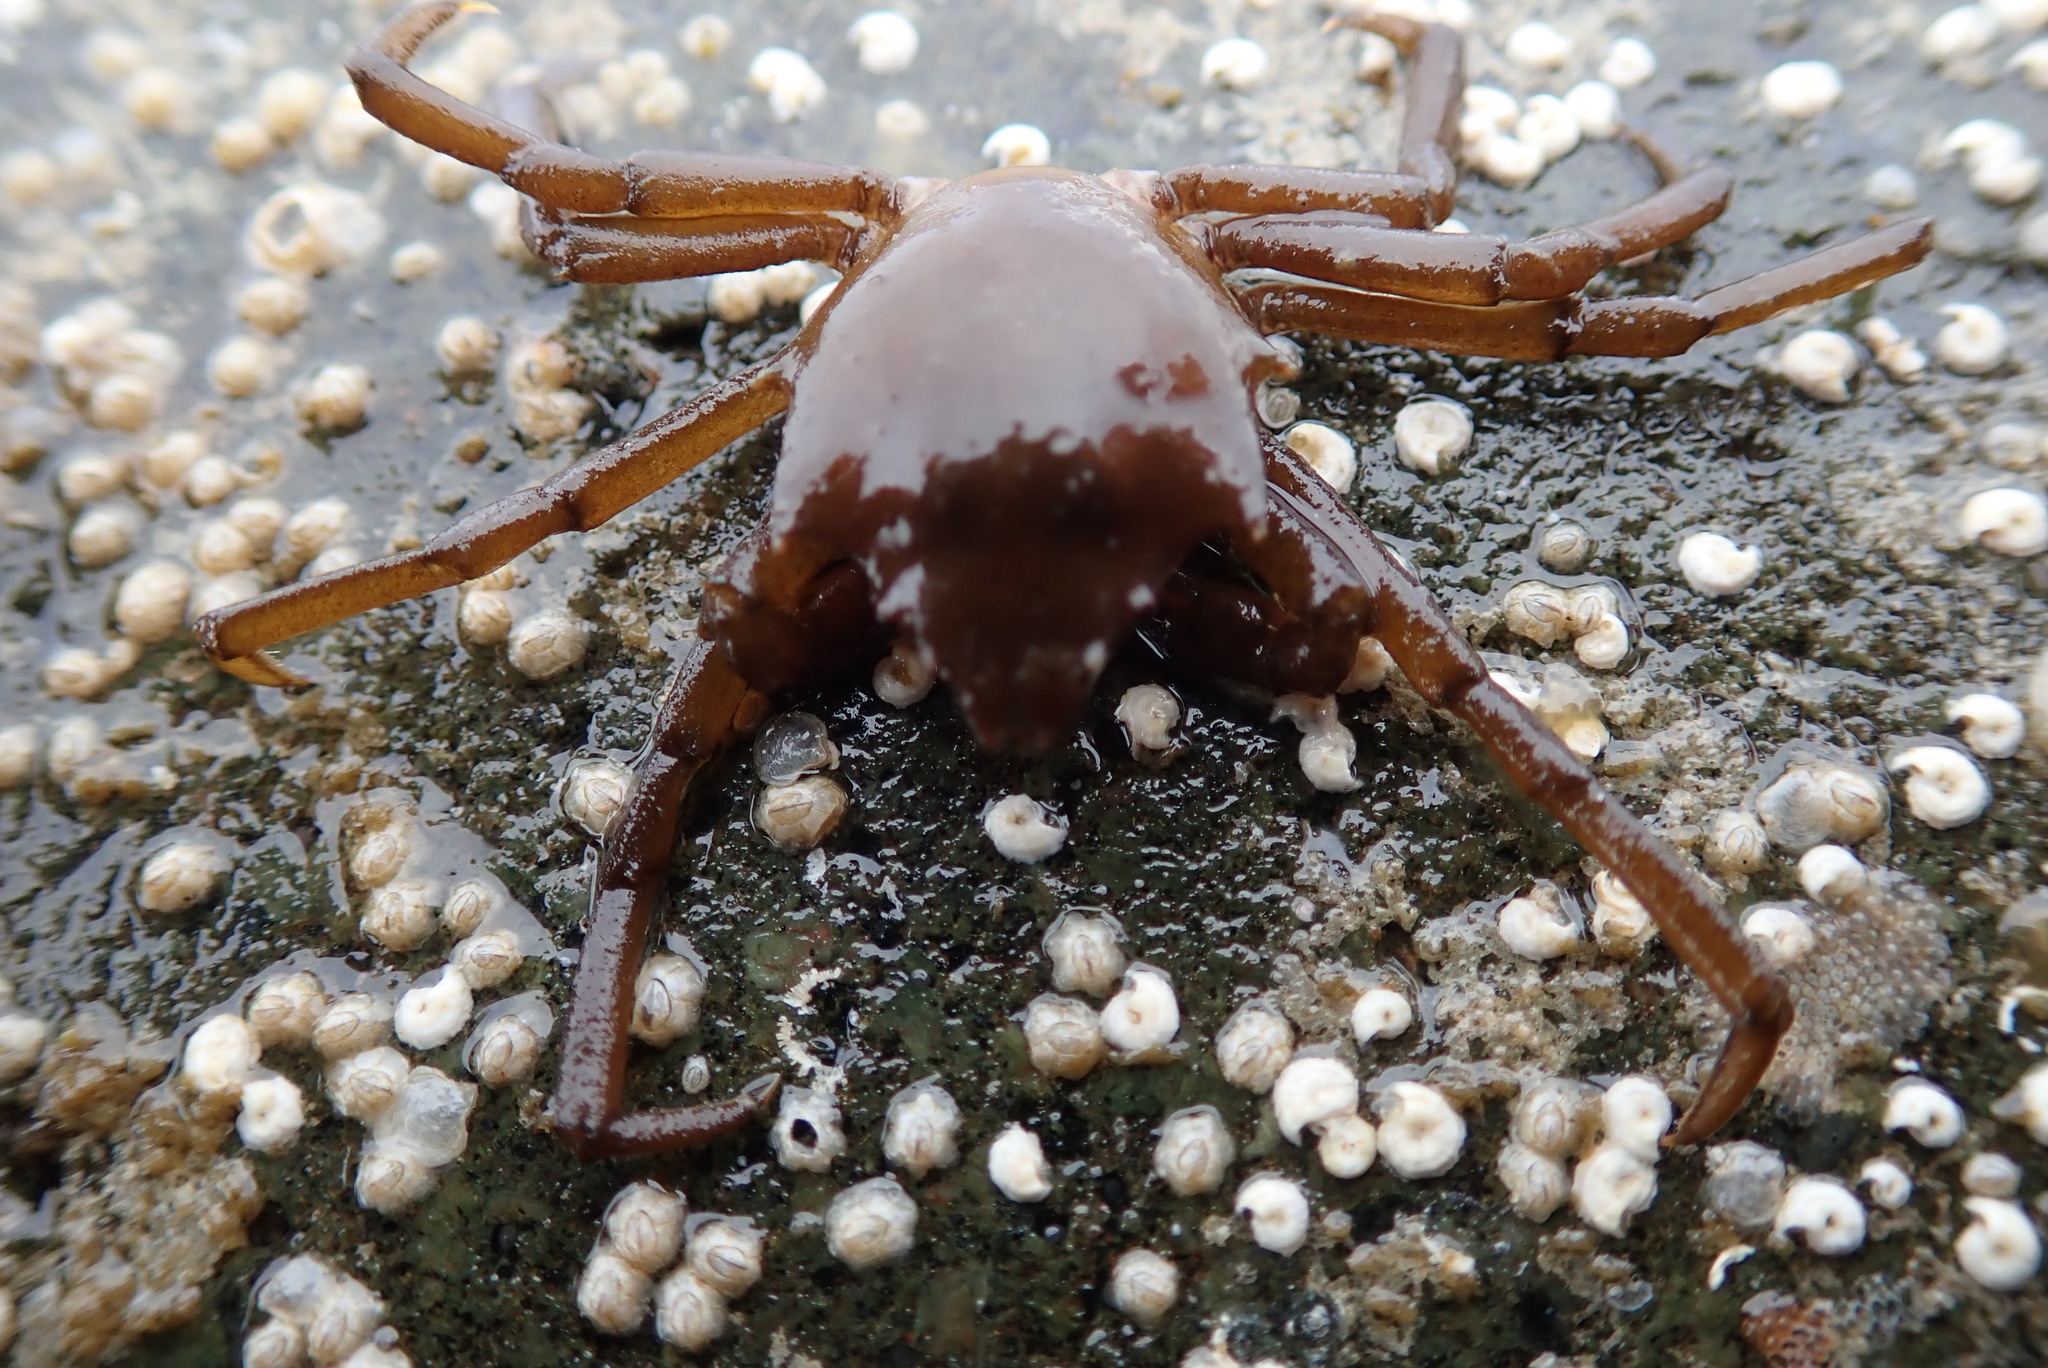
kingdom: Animalia
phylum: Arthropoda
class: Malacostraca
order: Decapoda
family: Epialtidae
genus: Pugettia
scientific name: Pugettia producta
